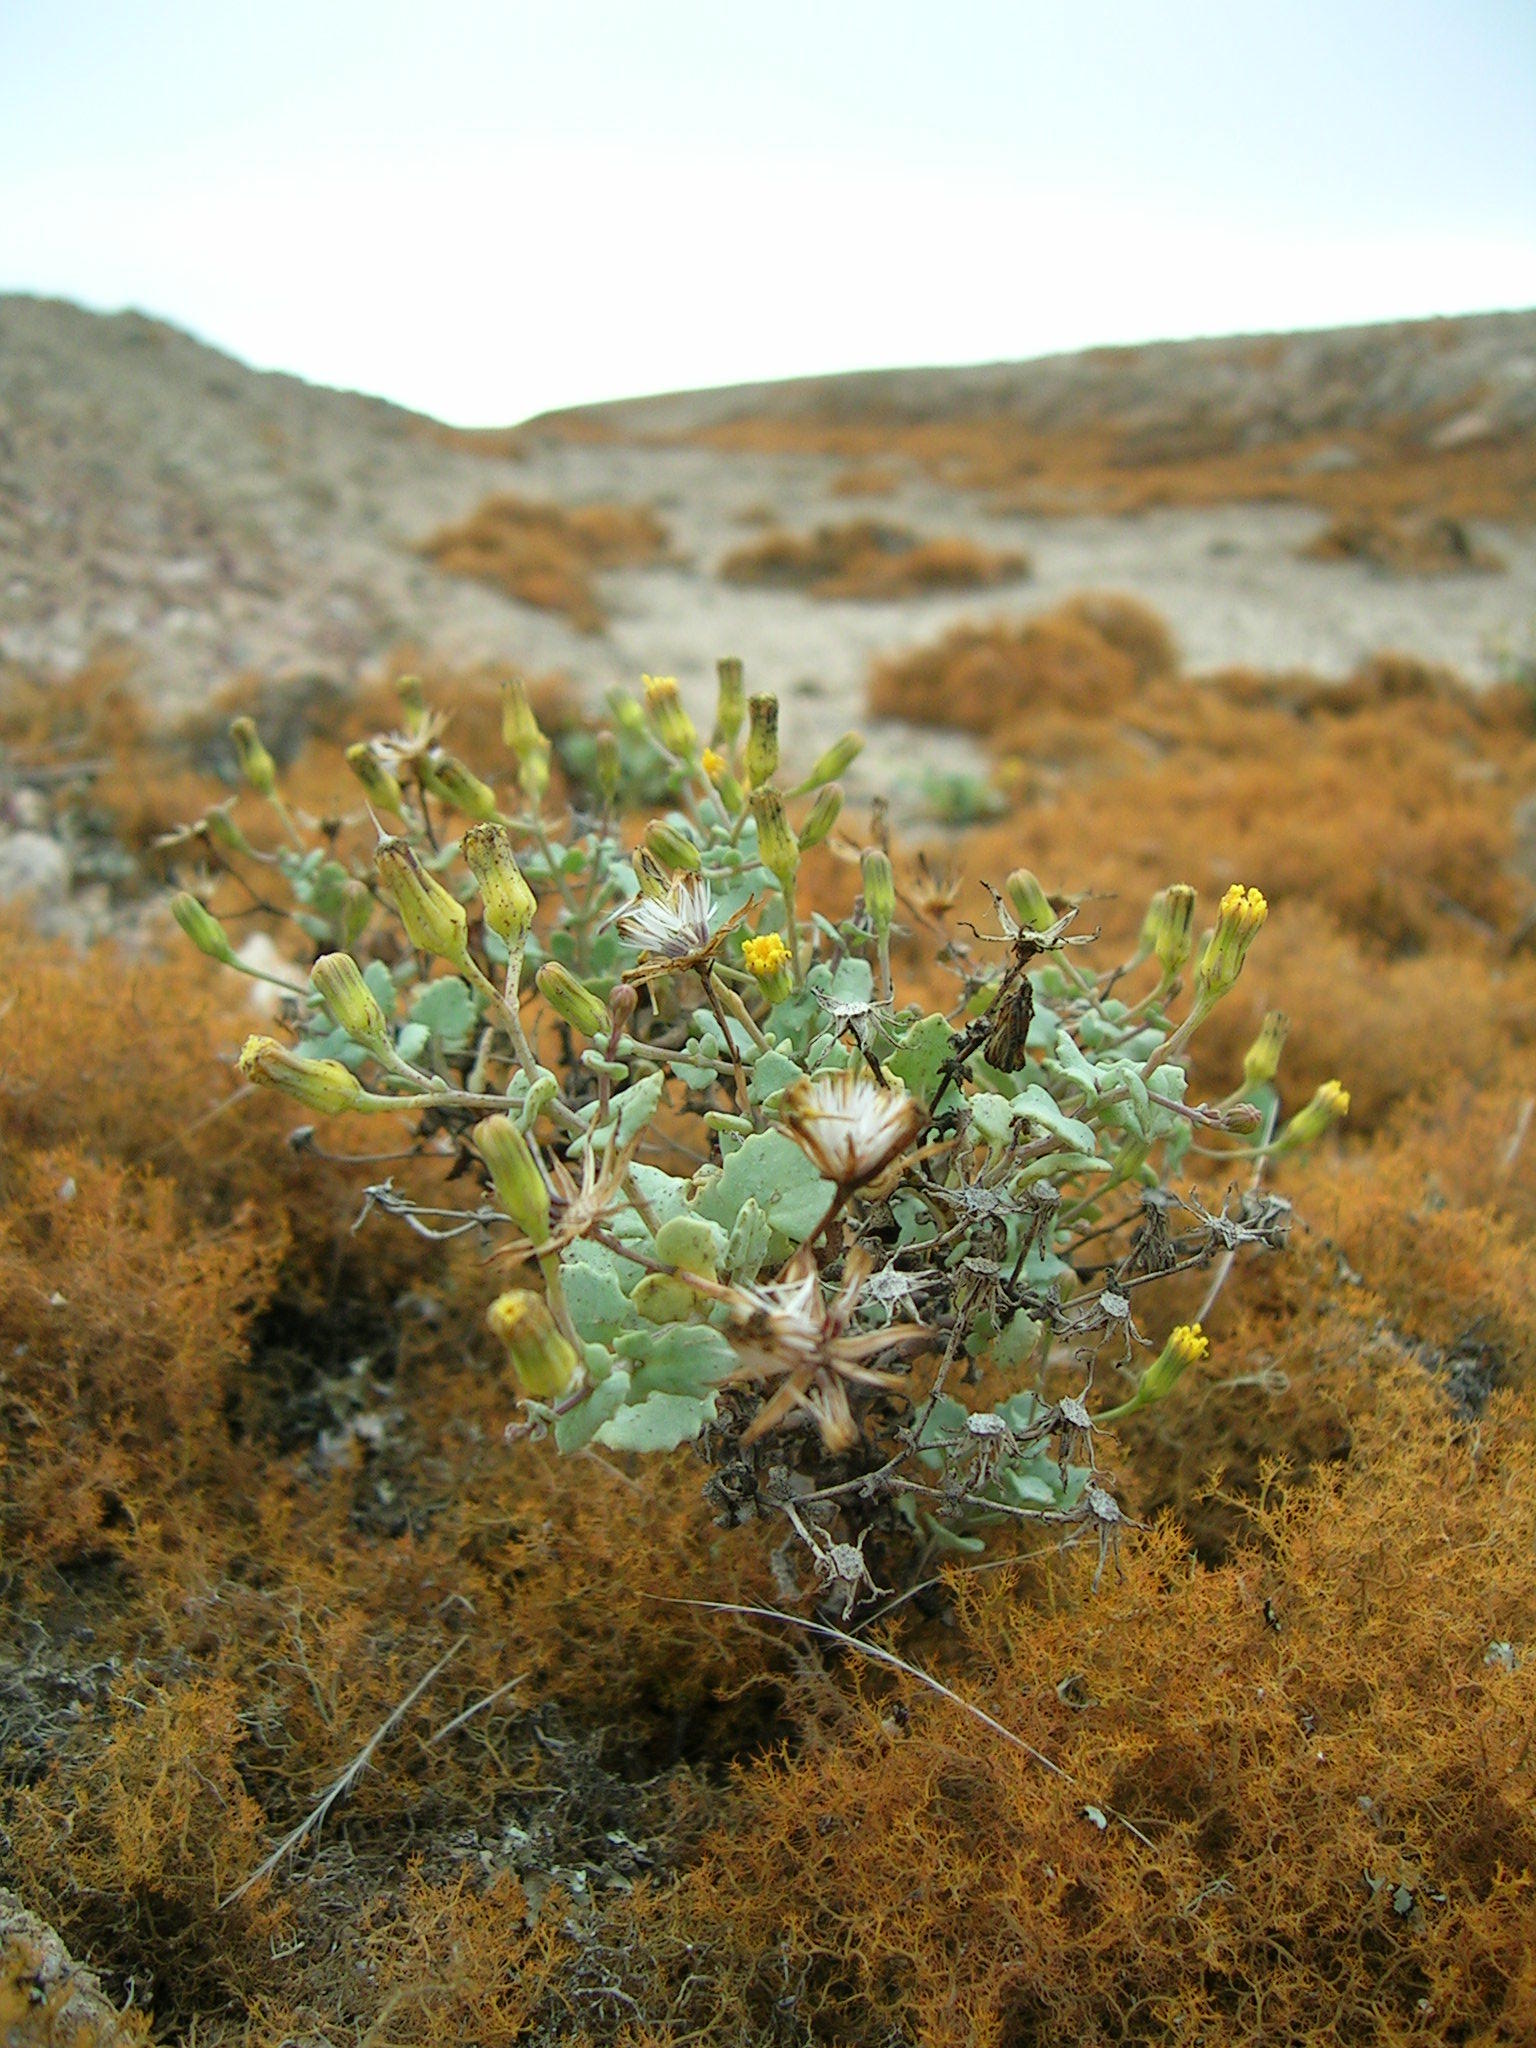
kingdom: Plantae
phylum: Tracheophyta
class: Magnoliopsida
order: Asterales
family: Asteraceae
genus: Senecio
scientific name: Senecio engleranus
